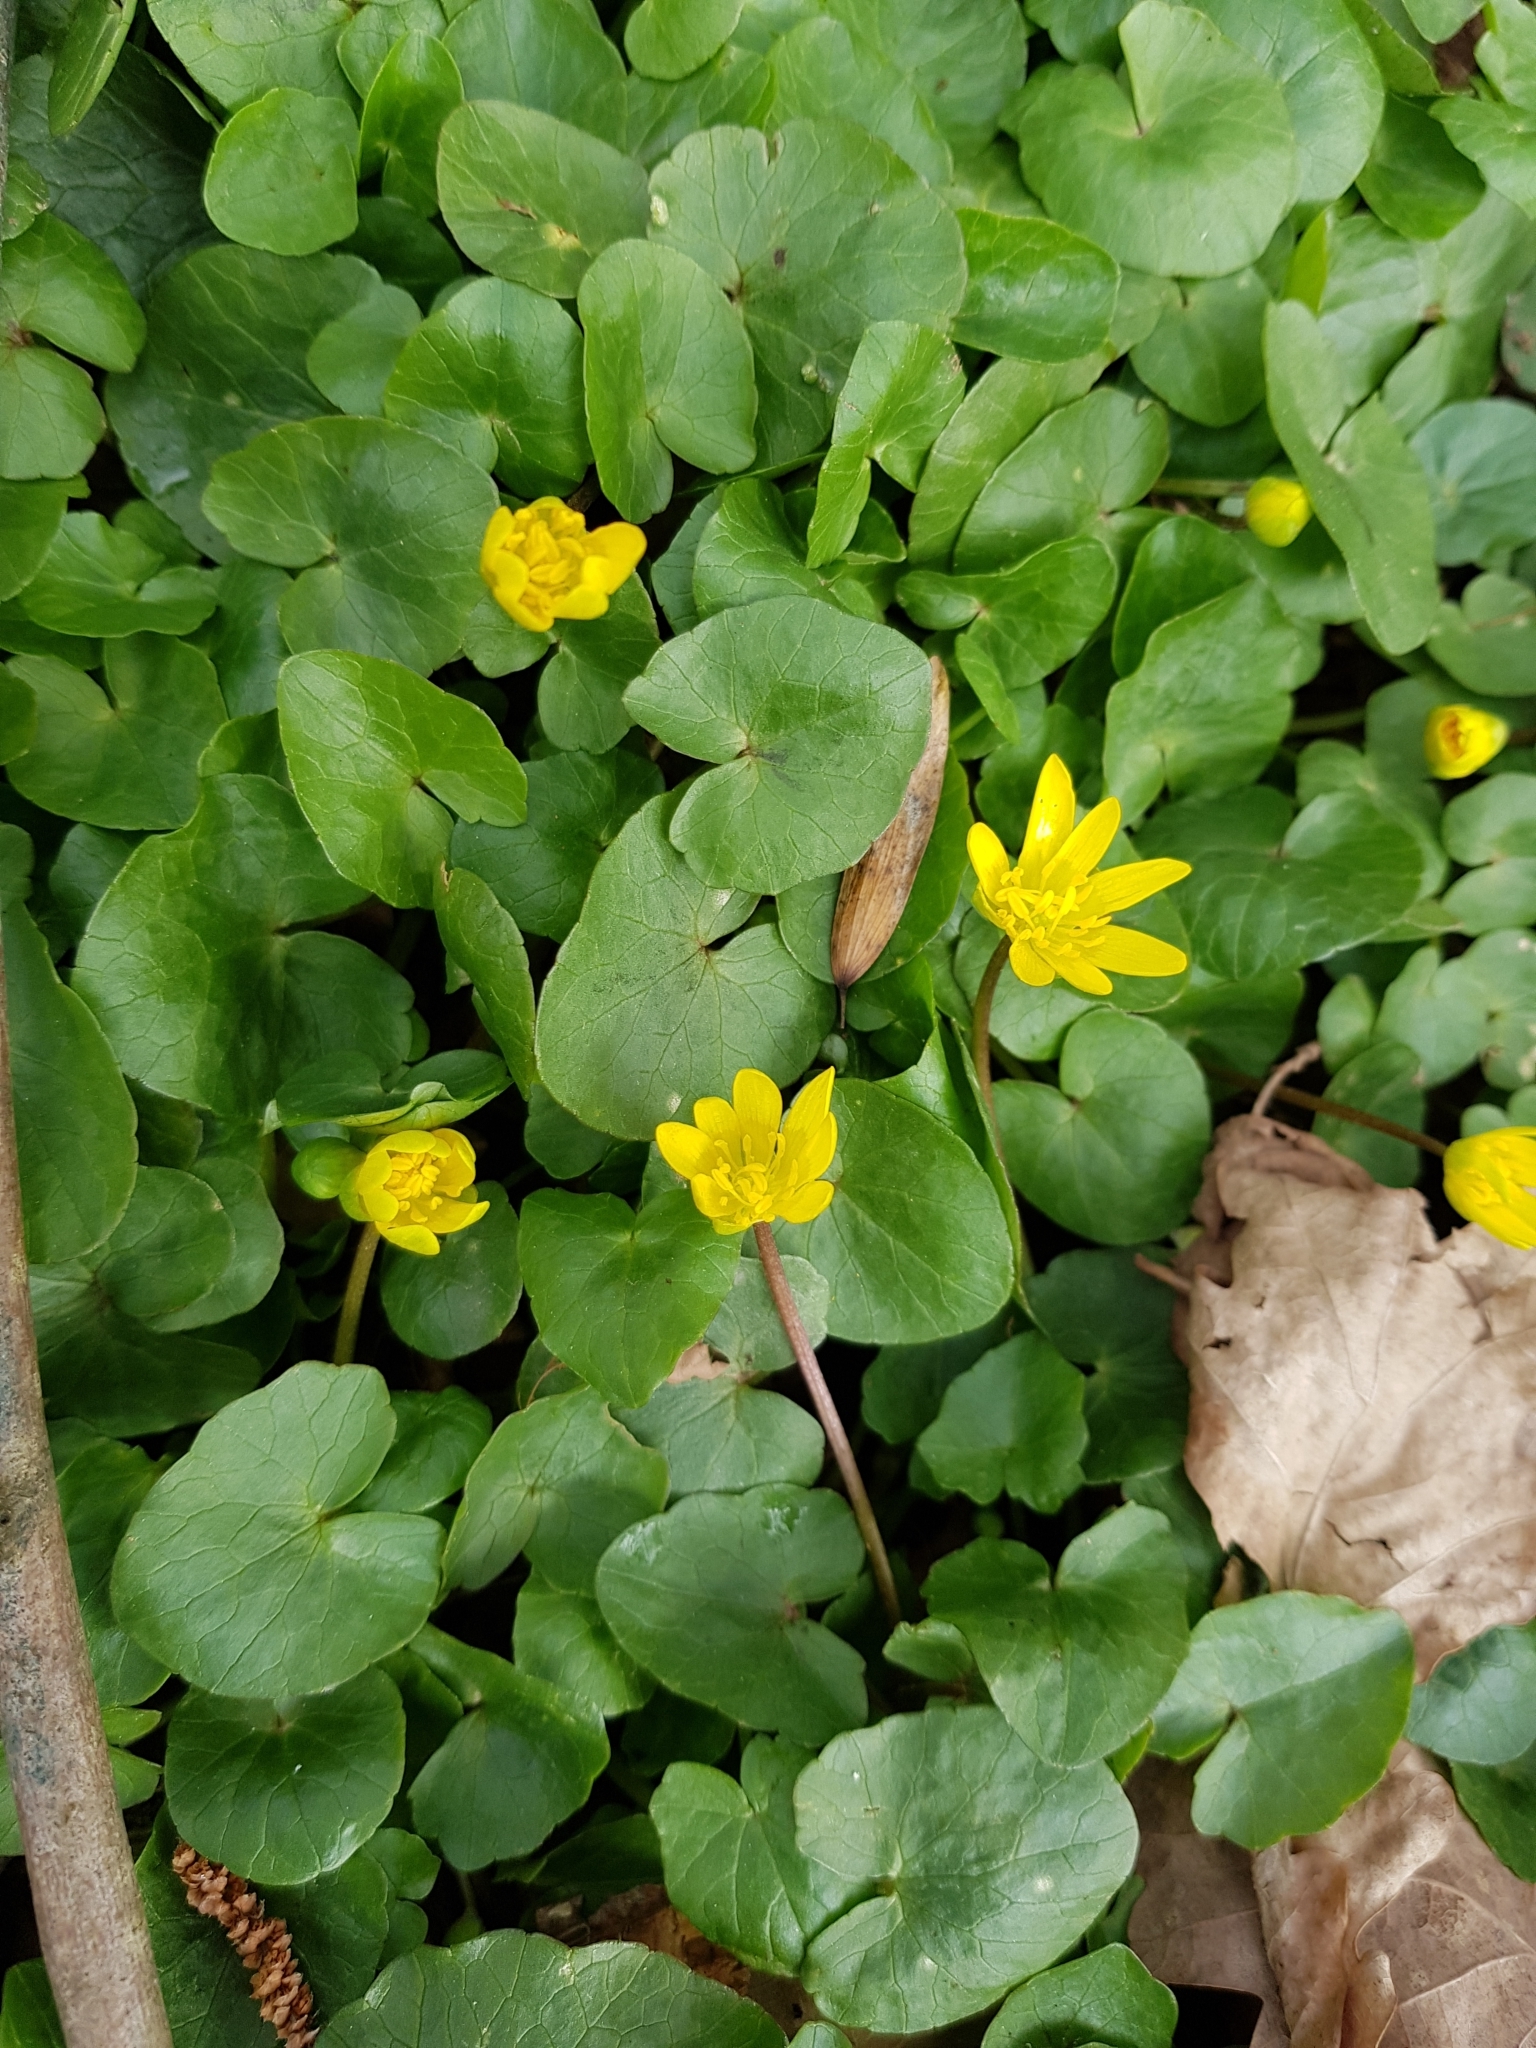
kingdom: Plantae
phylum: Tracheophyta
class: Magnoliopsida
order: Ranunculales
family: Ranunculaceae
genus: Ficaria
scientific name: Ficaria verna
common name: Lesser celandine
